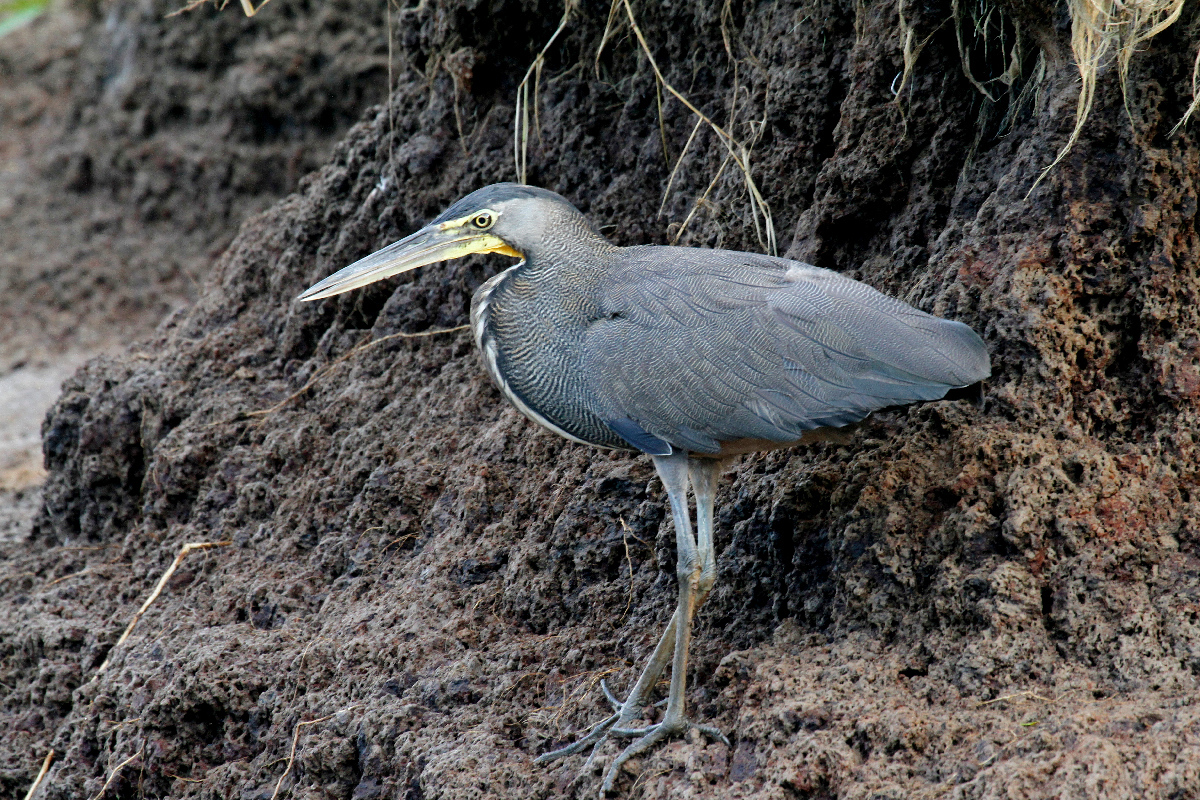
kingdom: Animalia
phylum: Chordata
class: Aves
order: Pelecaniformes
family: Ardeidae
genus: Tigrisoma
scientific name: Tigrisoma mexicanum
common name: Bare-throated tiger-heron
